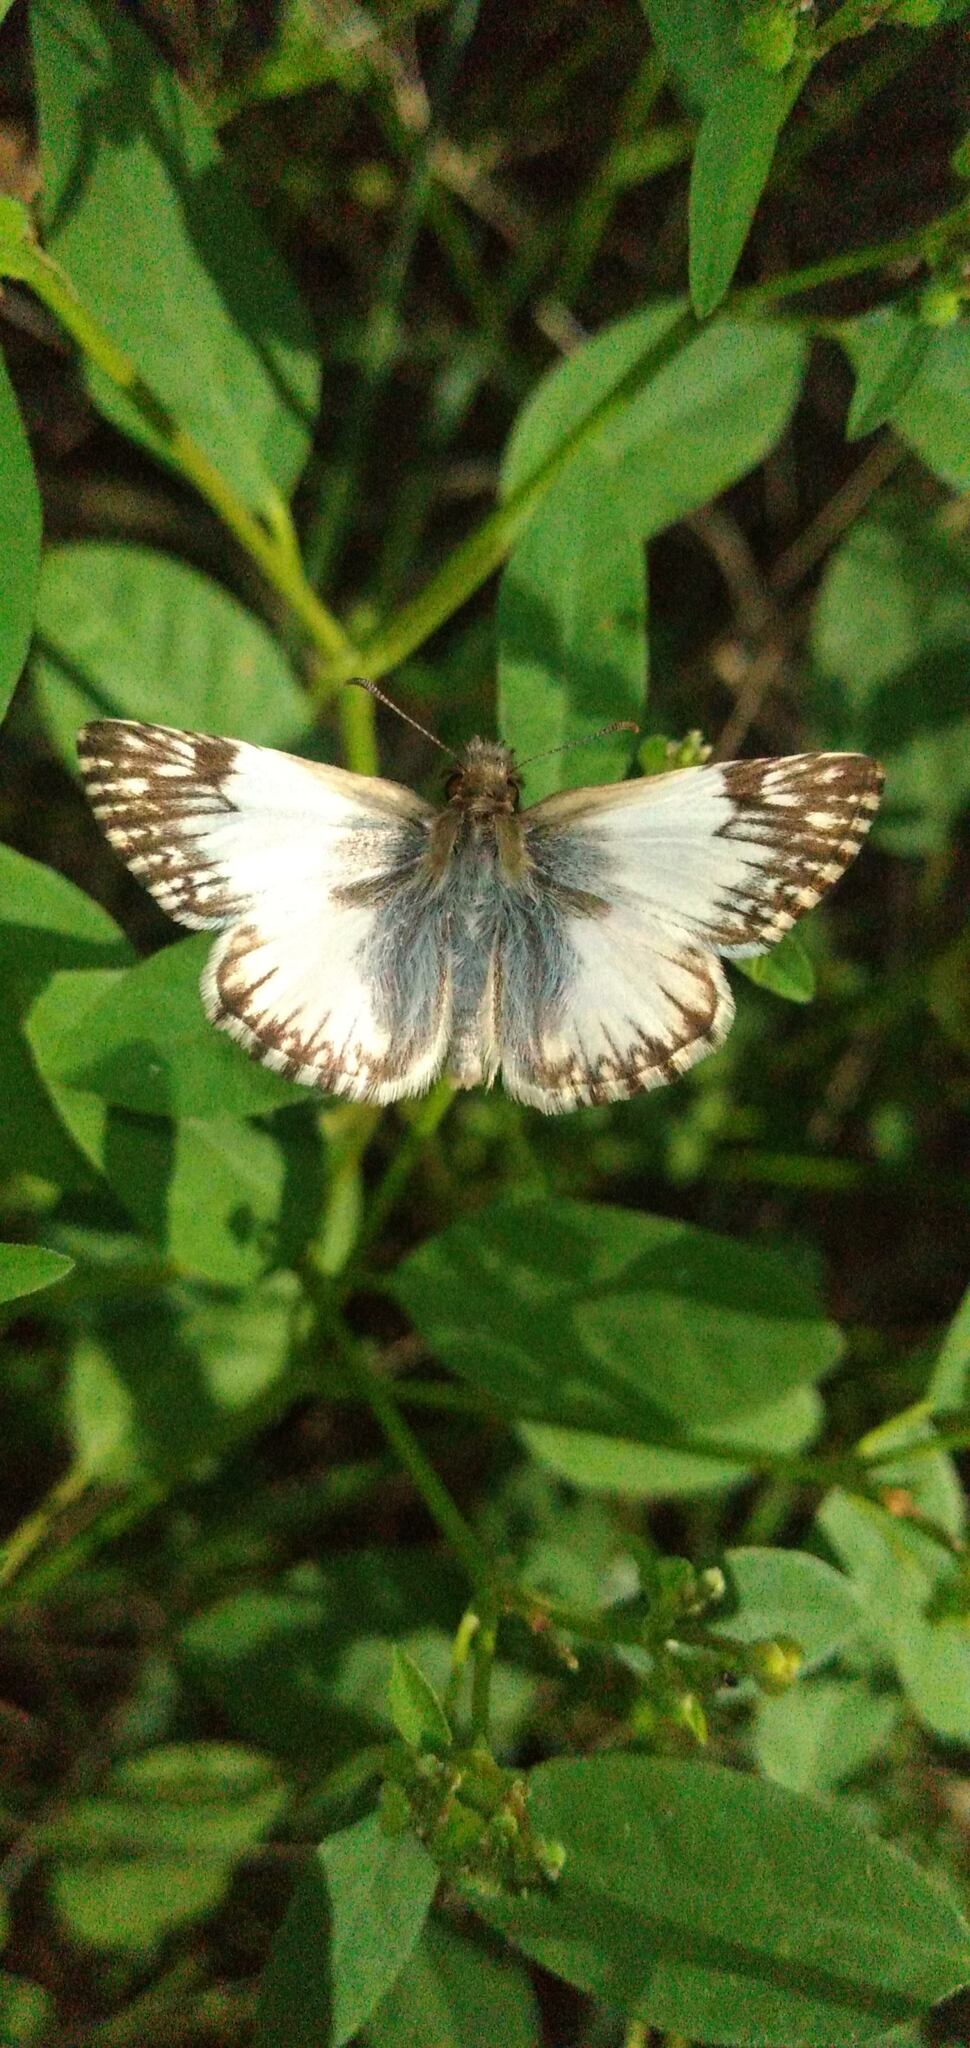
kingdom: Animalia
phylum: Arthropoda
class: Insecta
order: Lepidoptera
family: Hesperiidae
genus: Heliopetes
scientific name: Heliopetes omrina
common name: Stained white-skipper
